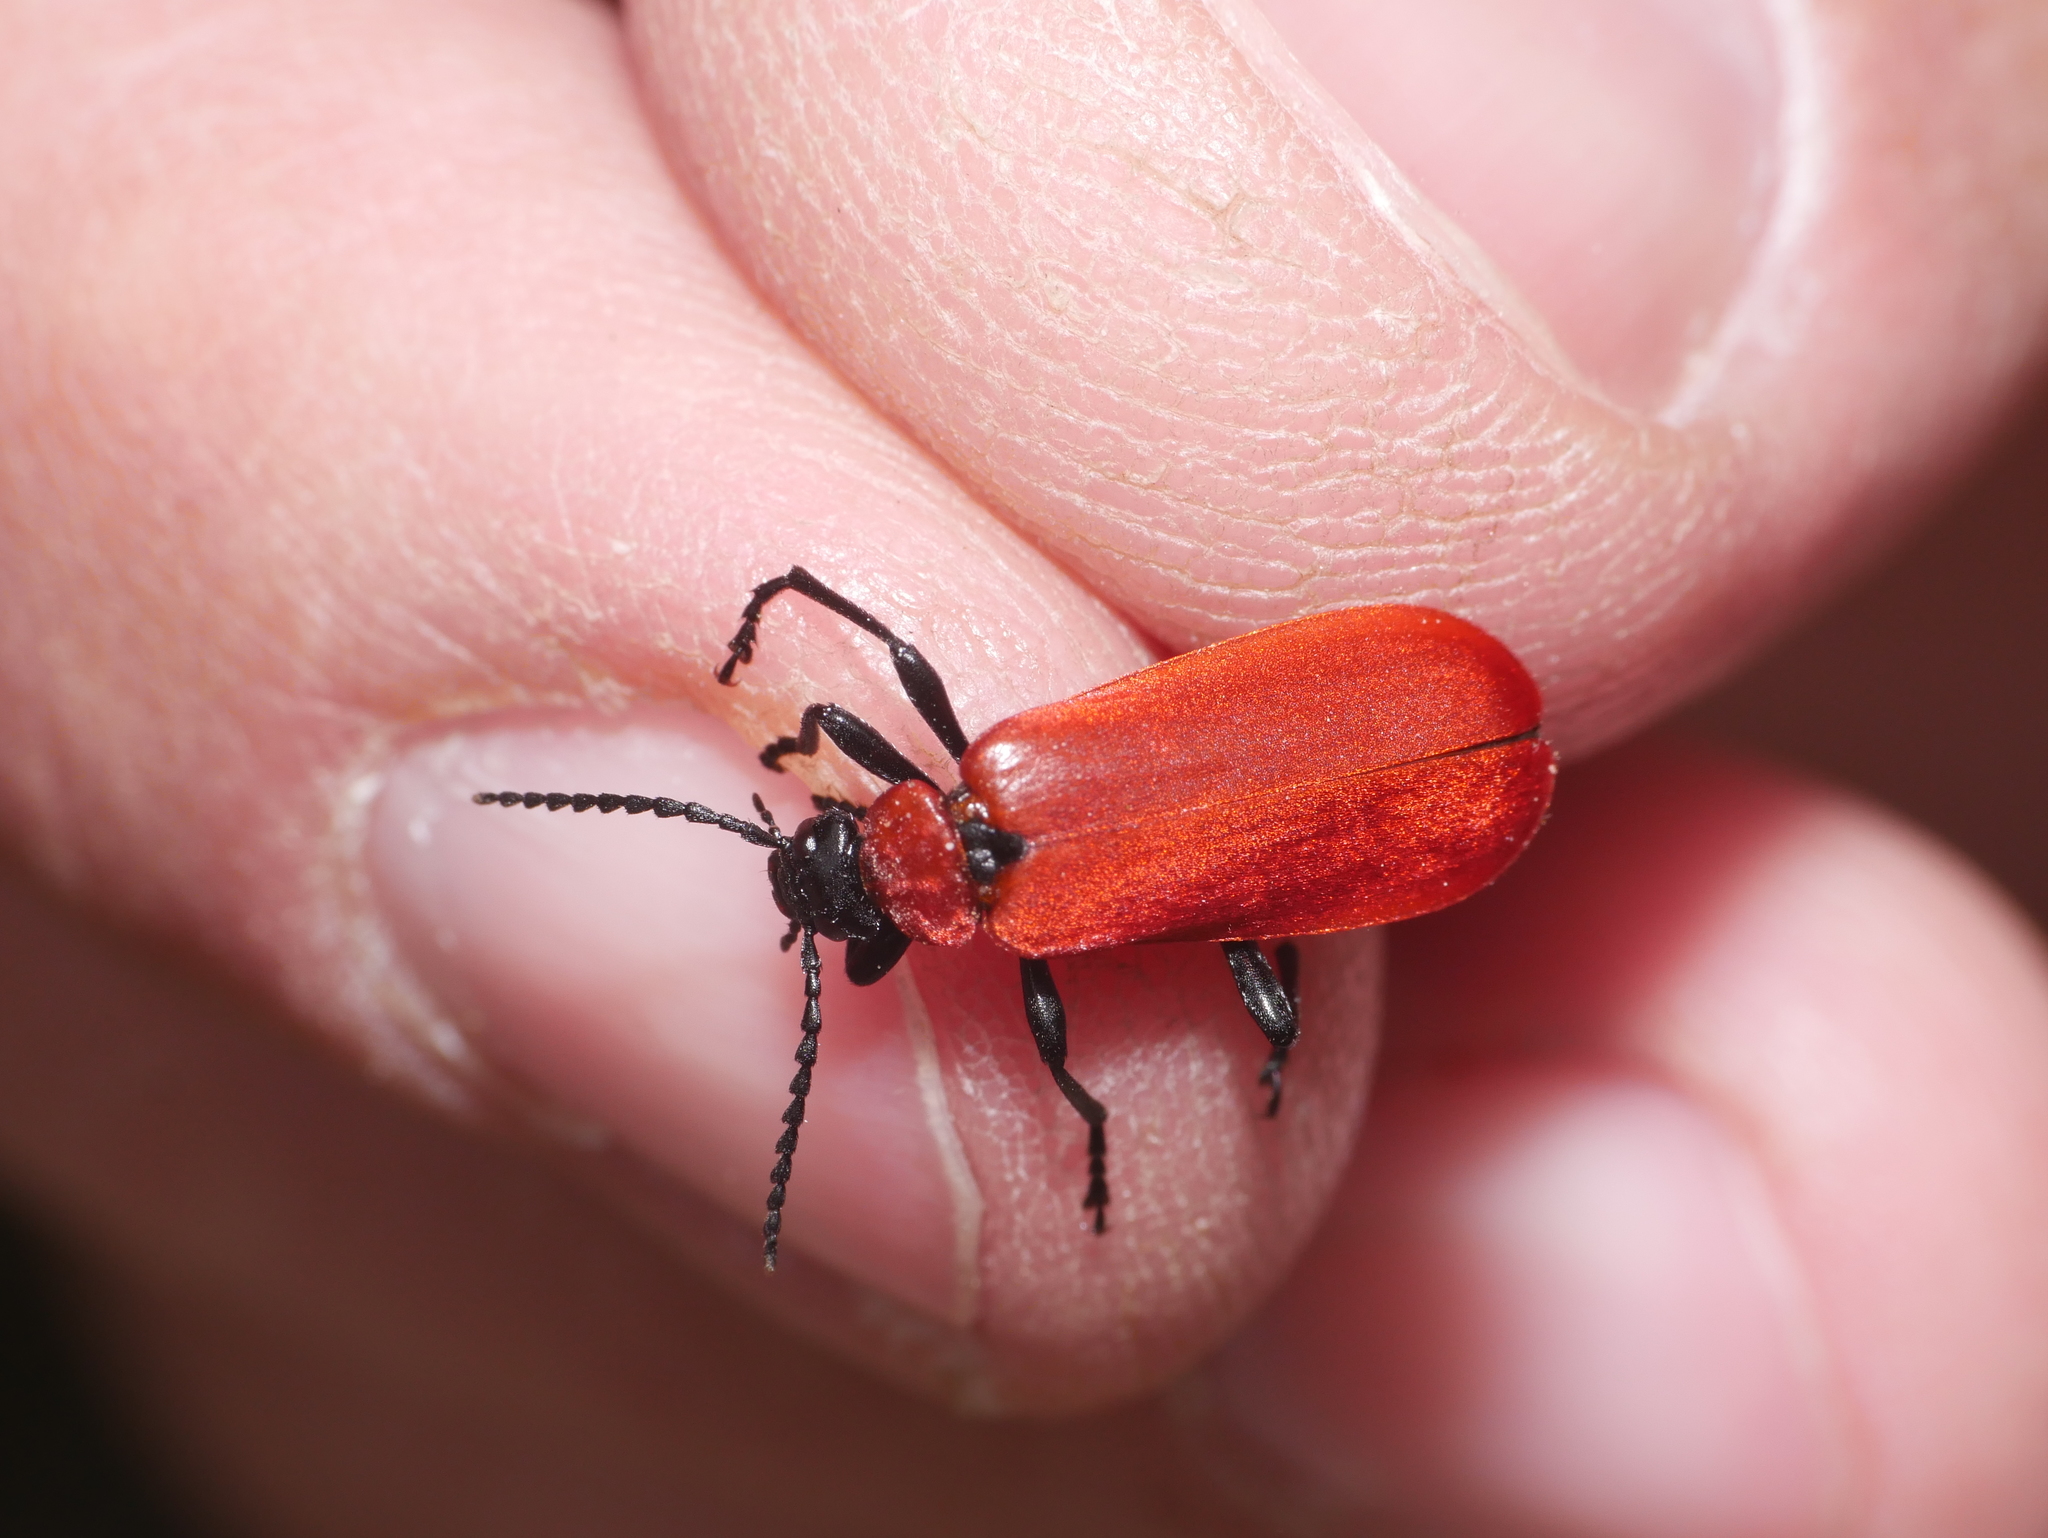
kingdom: Animalia
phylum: Arthropoda
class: Insecta
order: Coleoptera
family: Pyrochroidae
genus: Pyrochroa
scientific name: Pyrochroa coccinea
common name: Black-headed cardinal beetle
